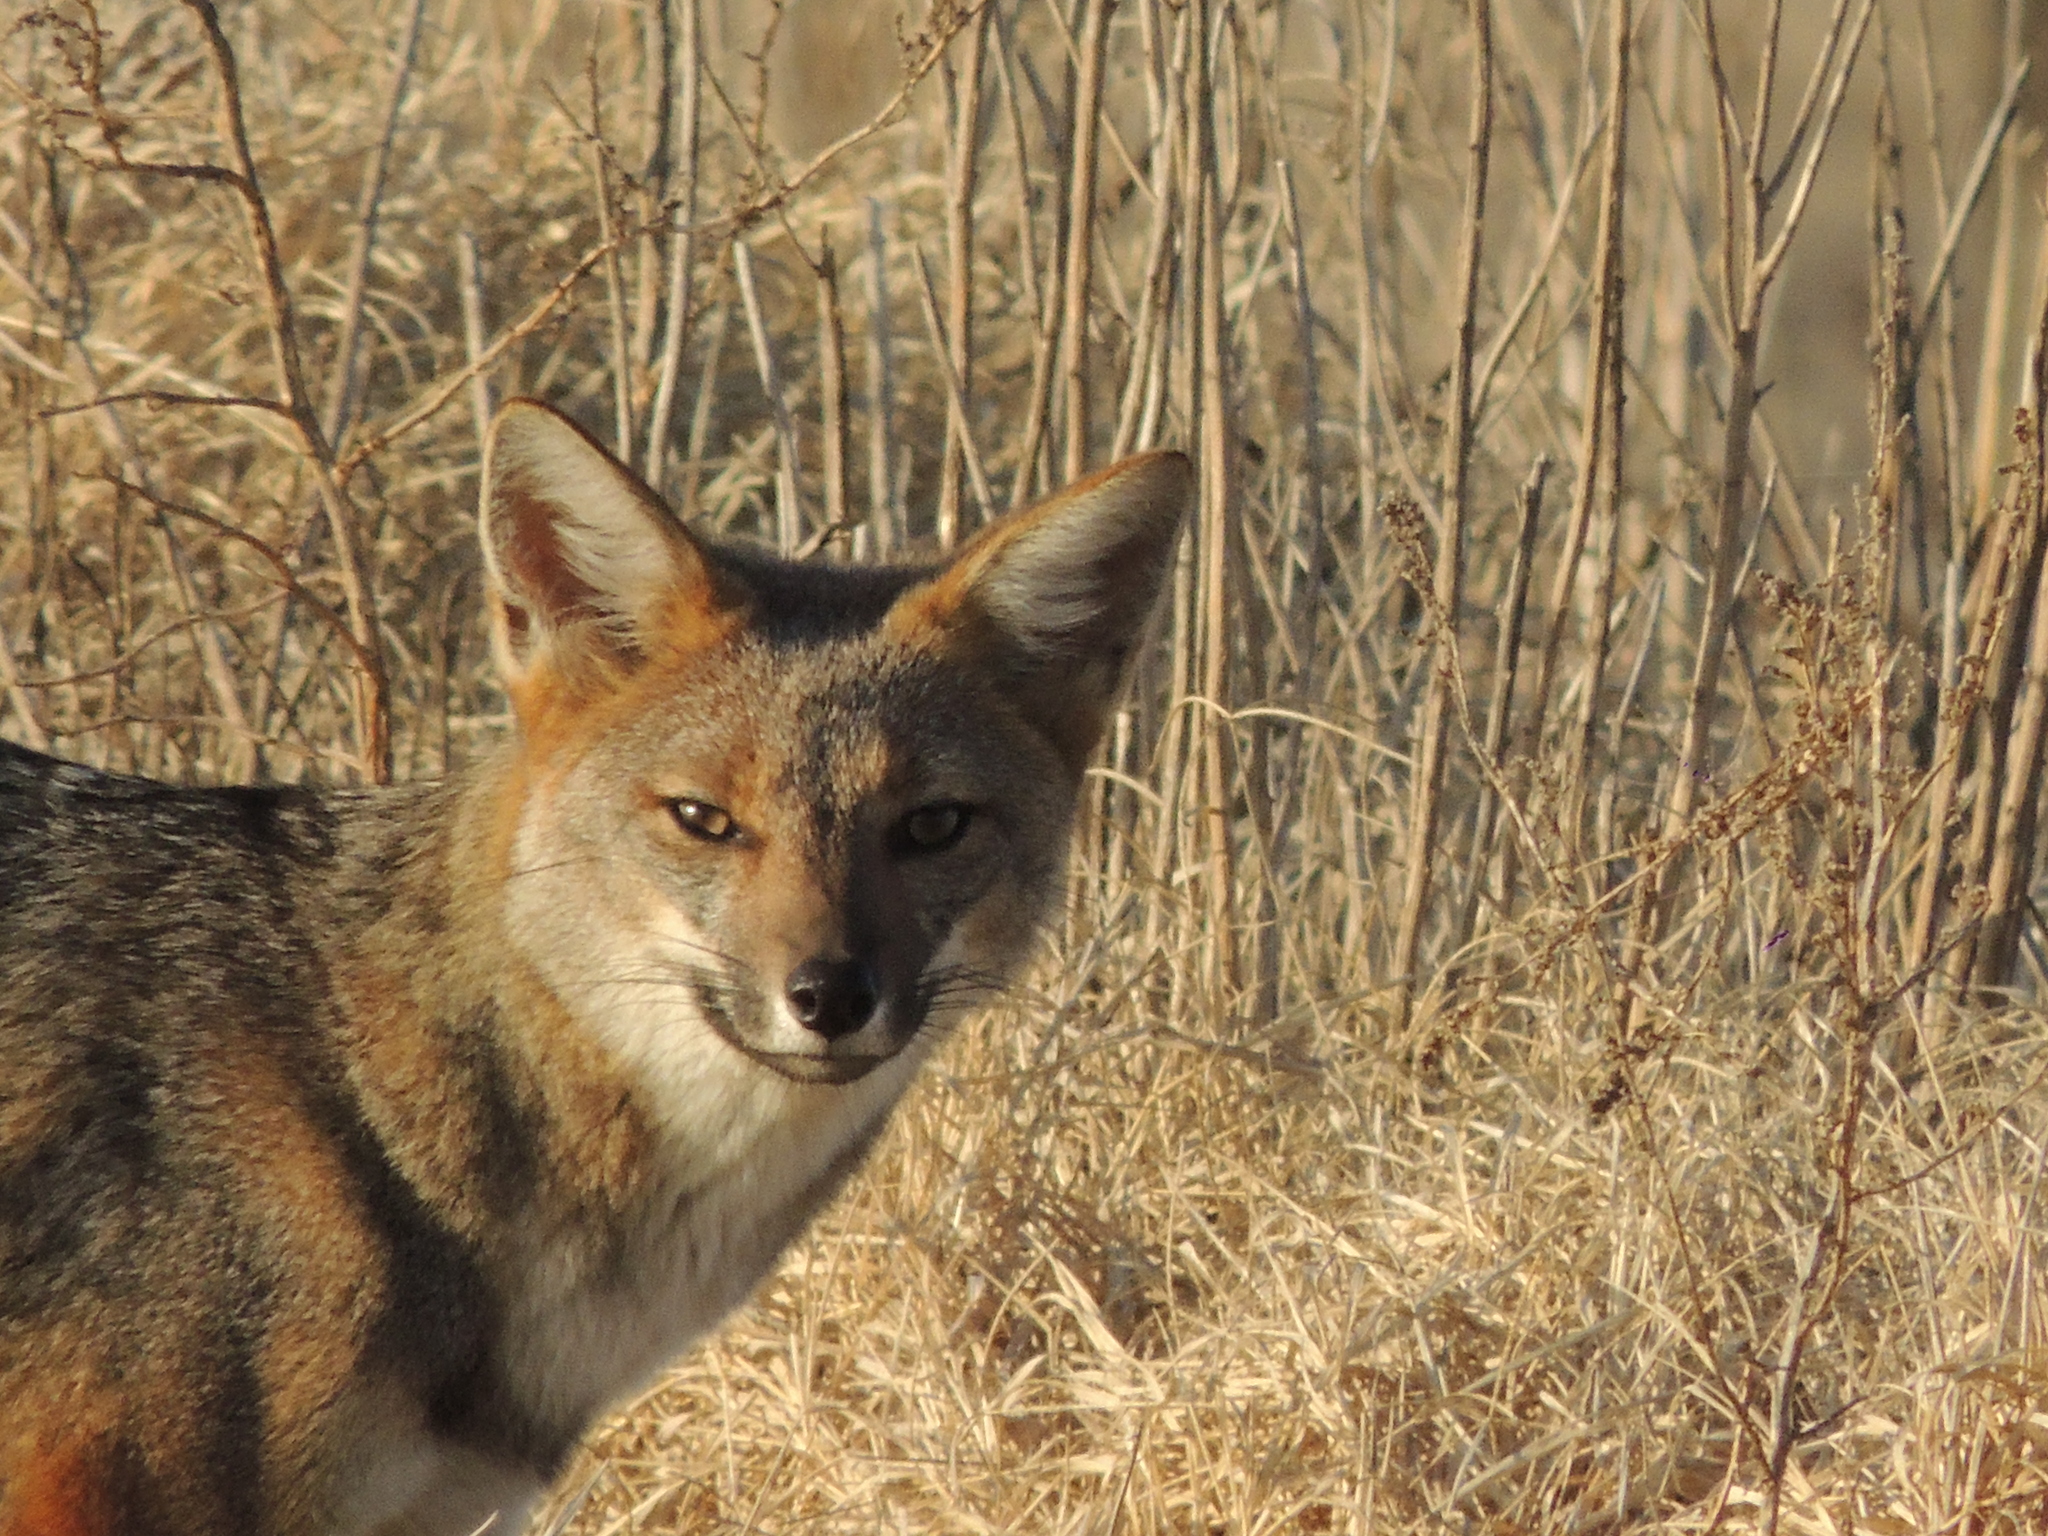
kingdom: Animalia
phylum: Chordata
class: Mammalia
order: Carnivora
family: Canidae
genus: Lycalopex
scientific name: Lycalopex gymnocercus
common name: Pampas fox
